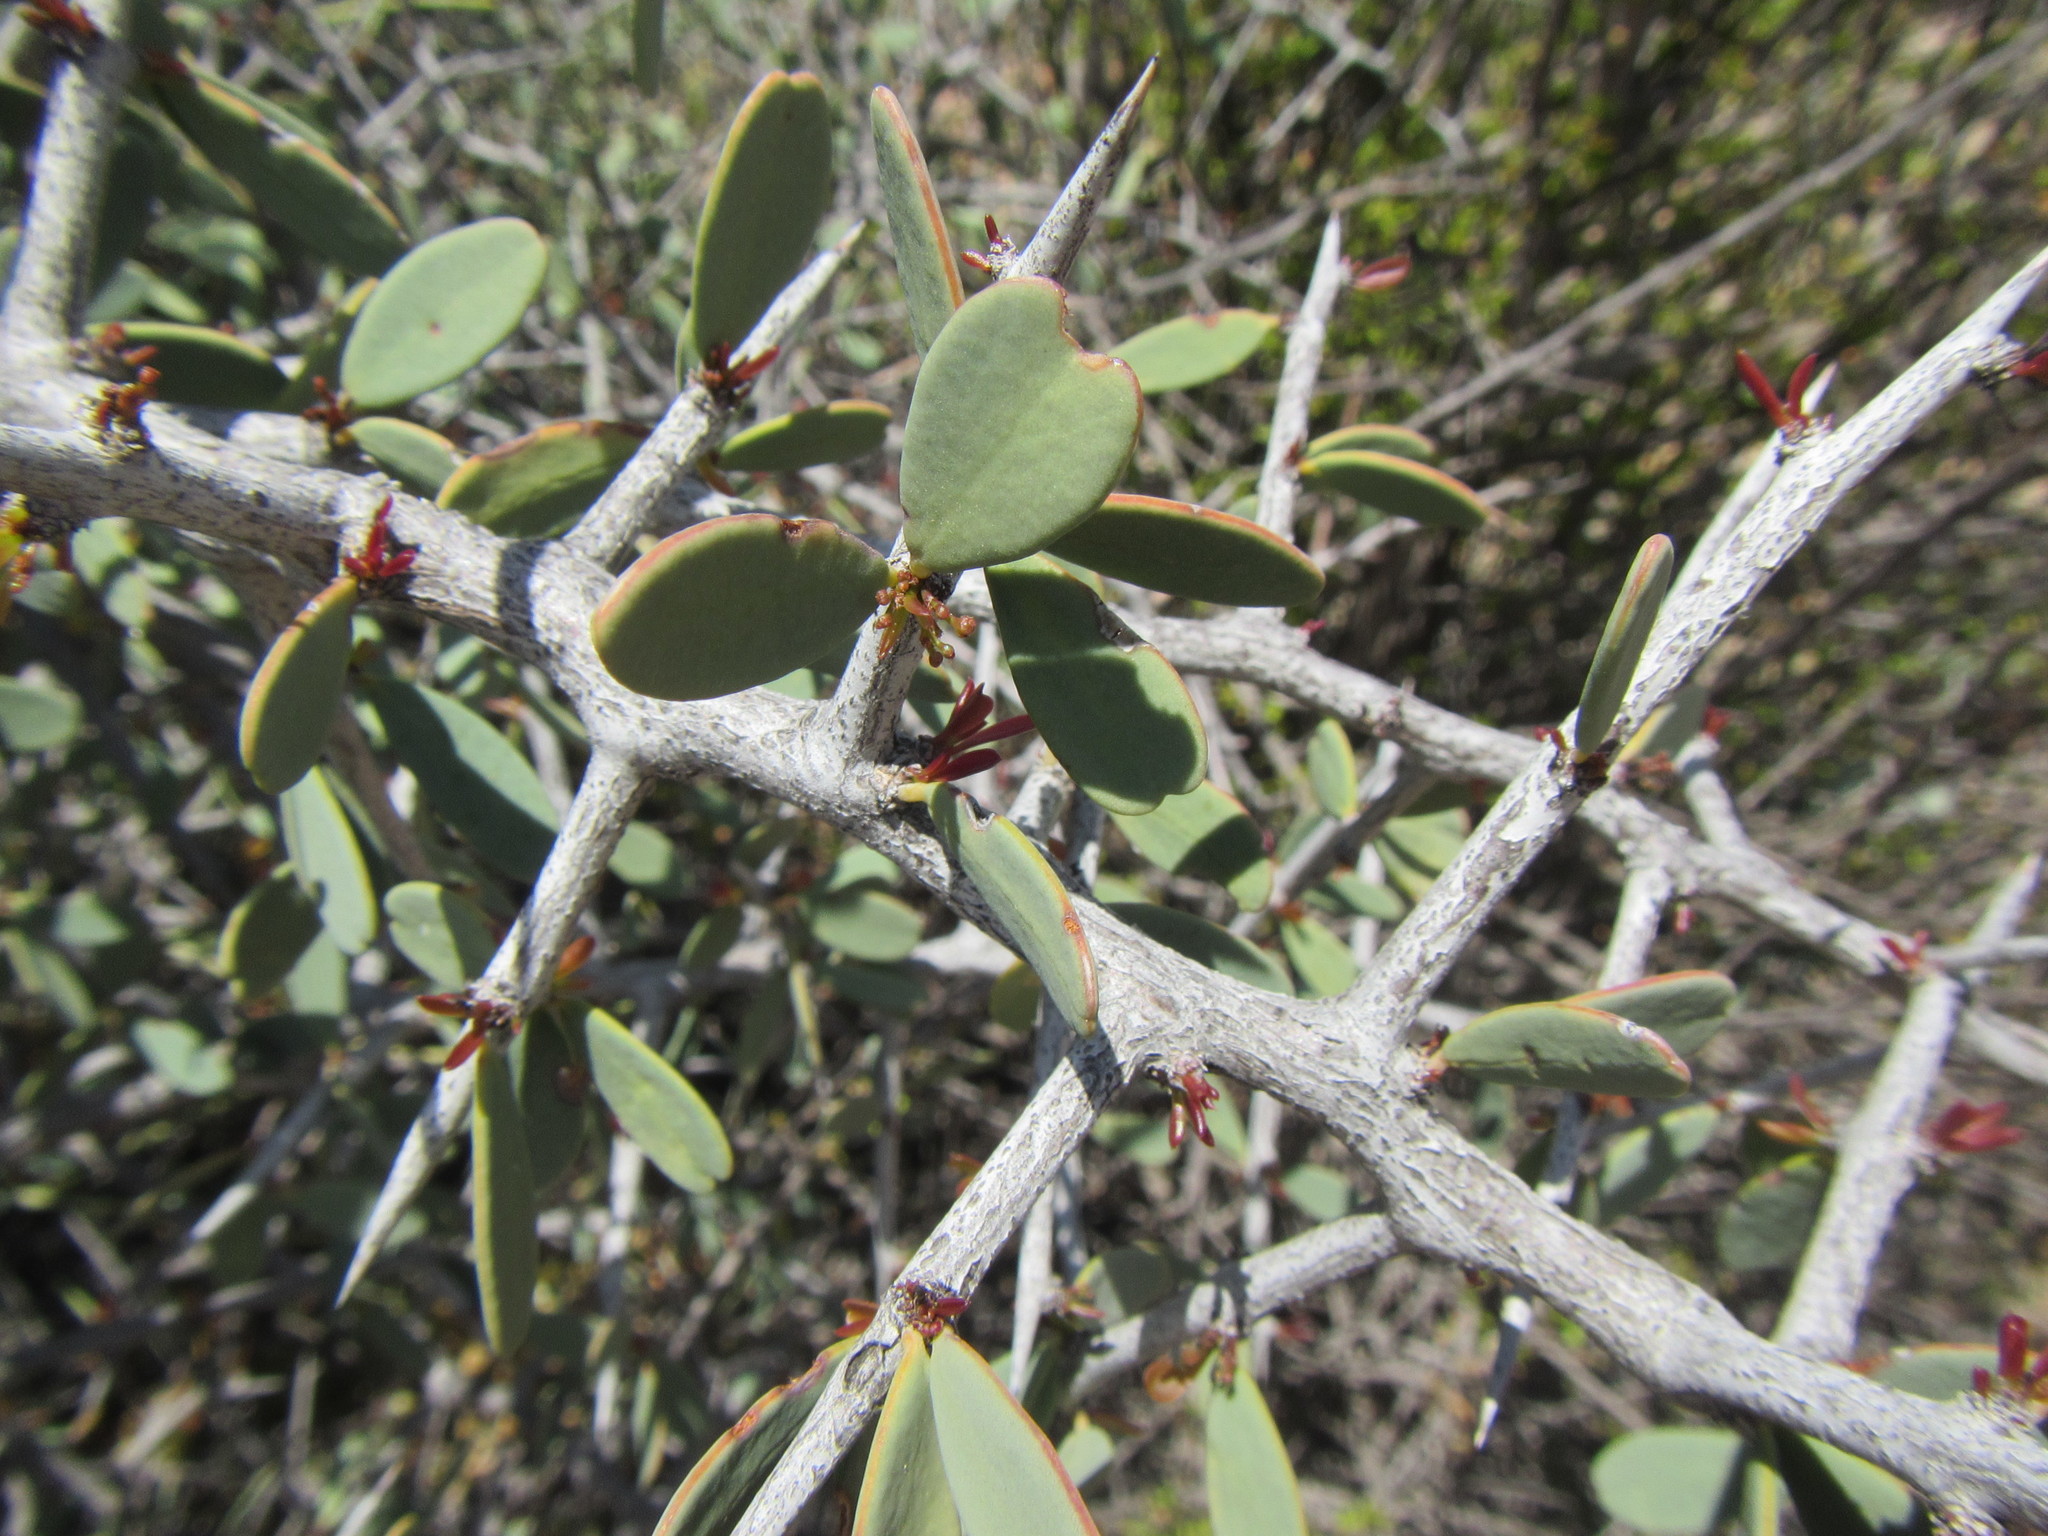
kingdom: Plantae
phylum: Tracheophyta
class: Magnoliopsida
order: Celastrales
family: Celastraceae
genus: Gloveria
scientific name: Gloveria integrifolia
